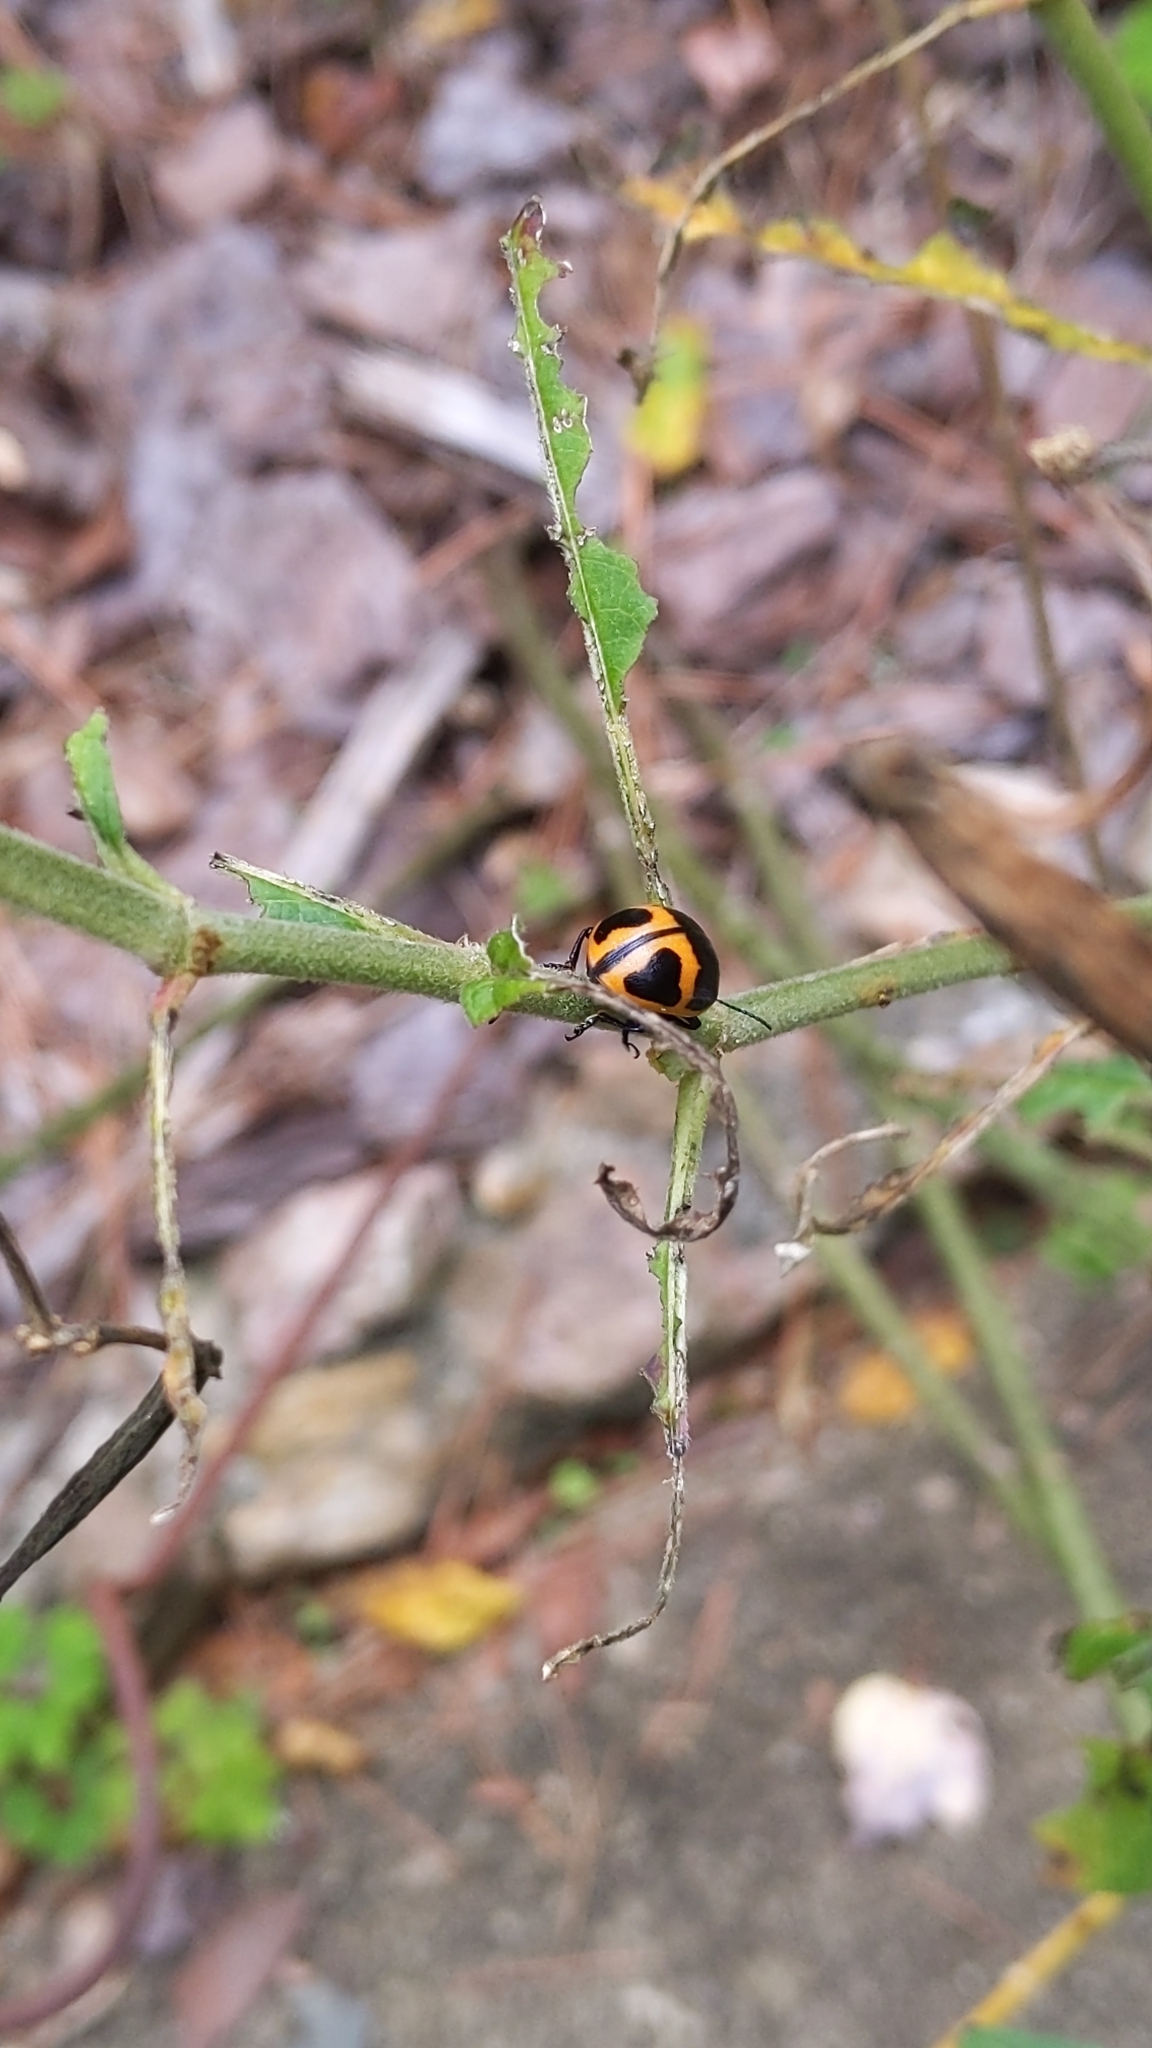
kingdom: Animalia
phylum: Arthropoda
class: Insecta
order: Coleoptera
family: Chrysomelidae
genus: Labidomera
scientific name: Labidomera clivicollis
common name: Swamp milkweed leaf beetle
